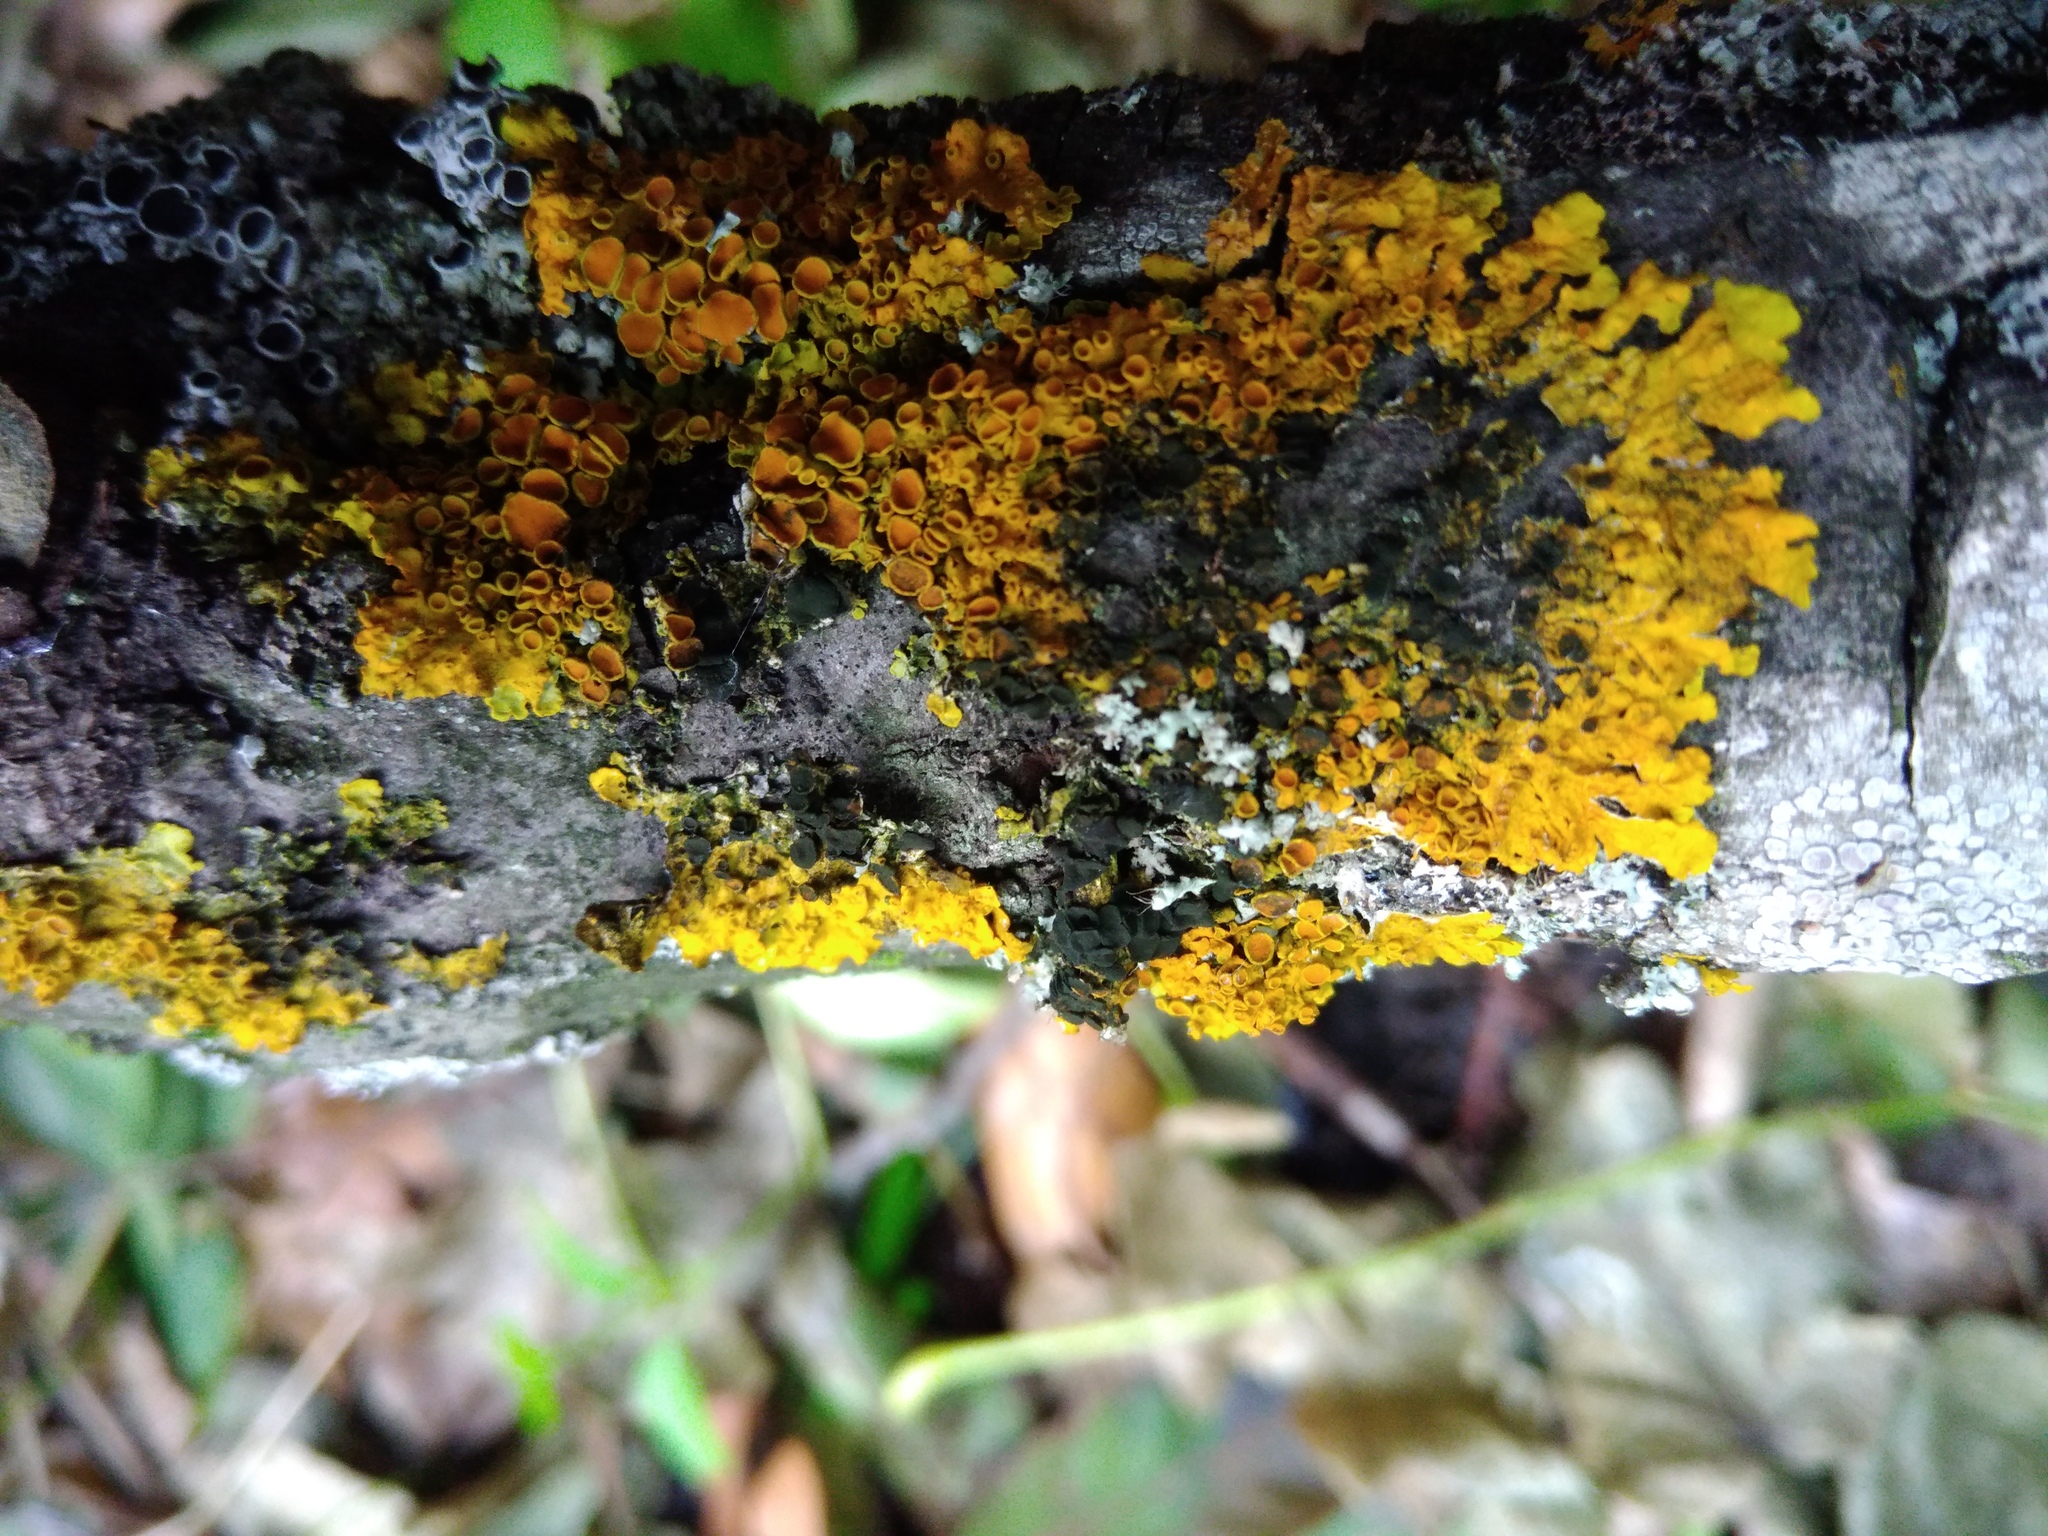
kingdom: Fungi
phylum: Ascomycota
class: Dothideomycetes
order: Mycosphaerellales
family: Teratosphaeriaceae
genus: Xanthoriicola
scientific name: Xanthoriicola physciae
